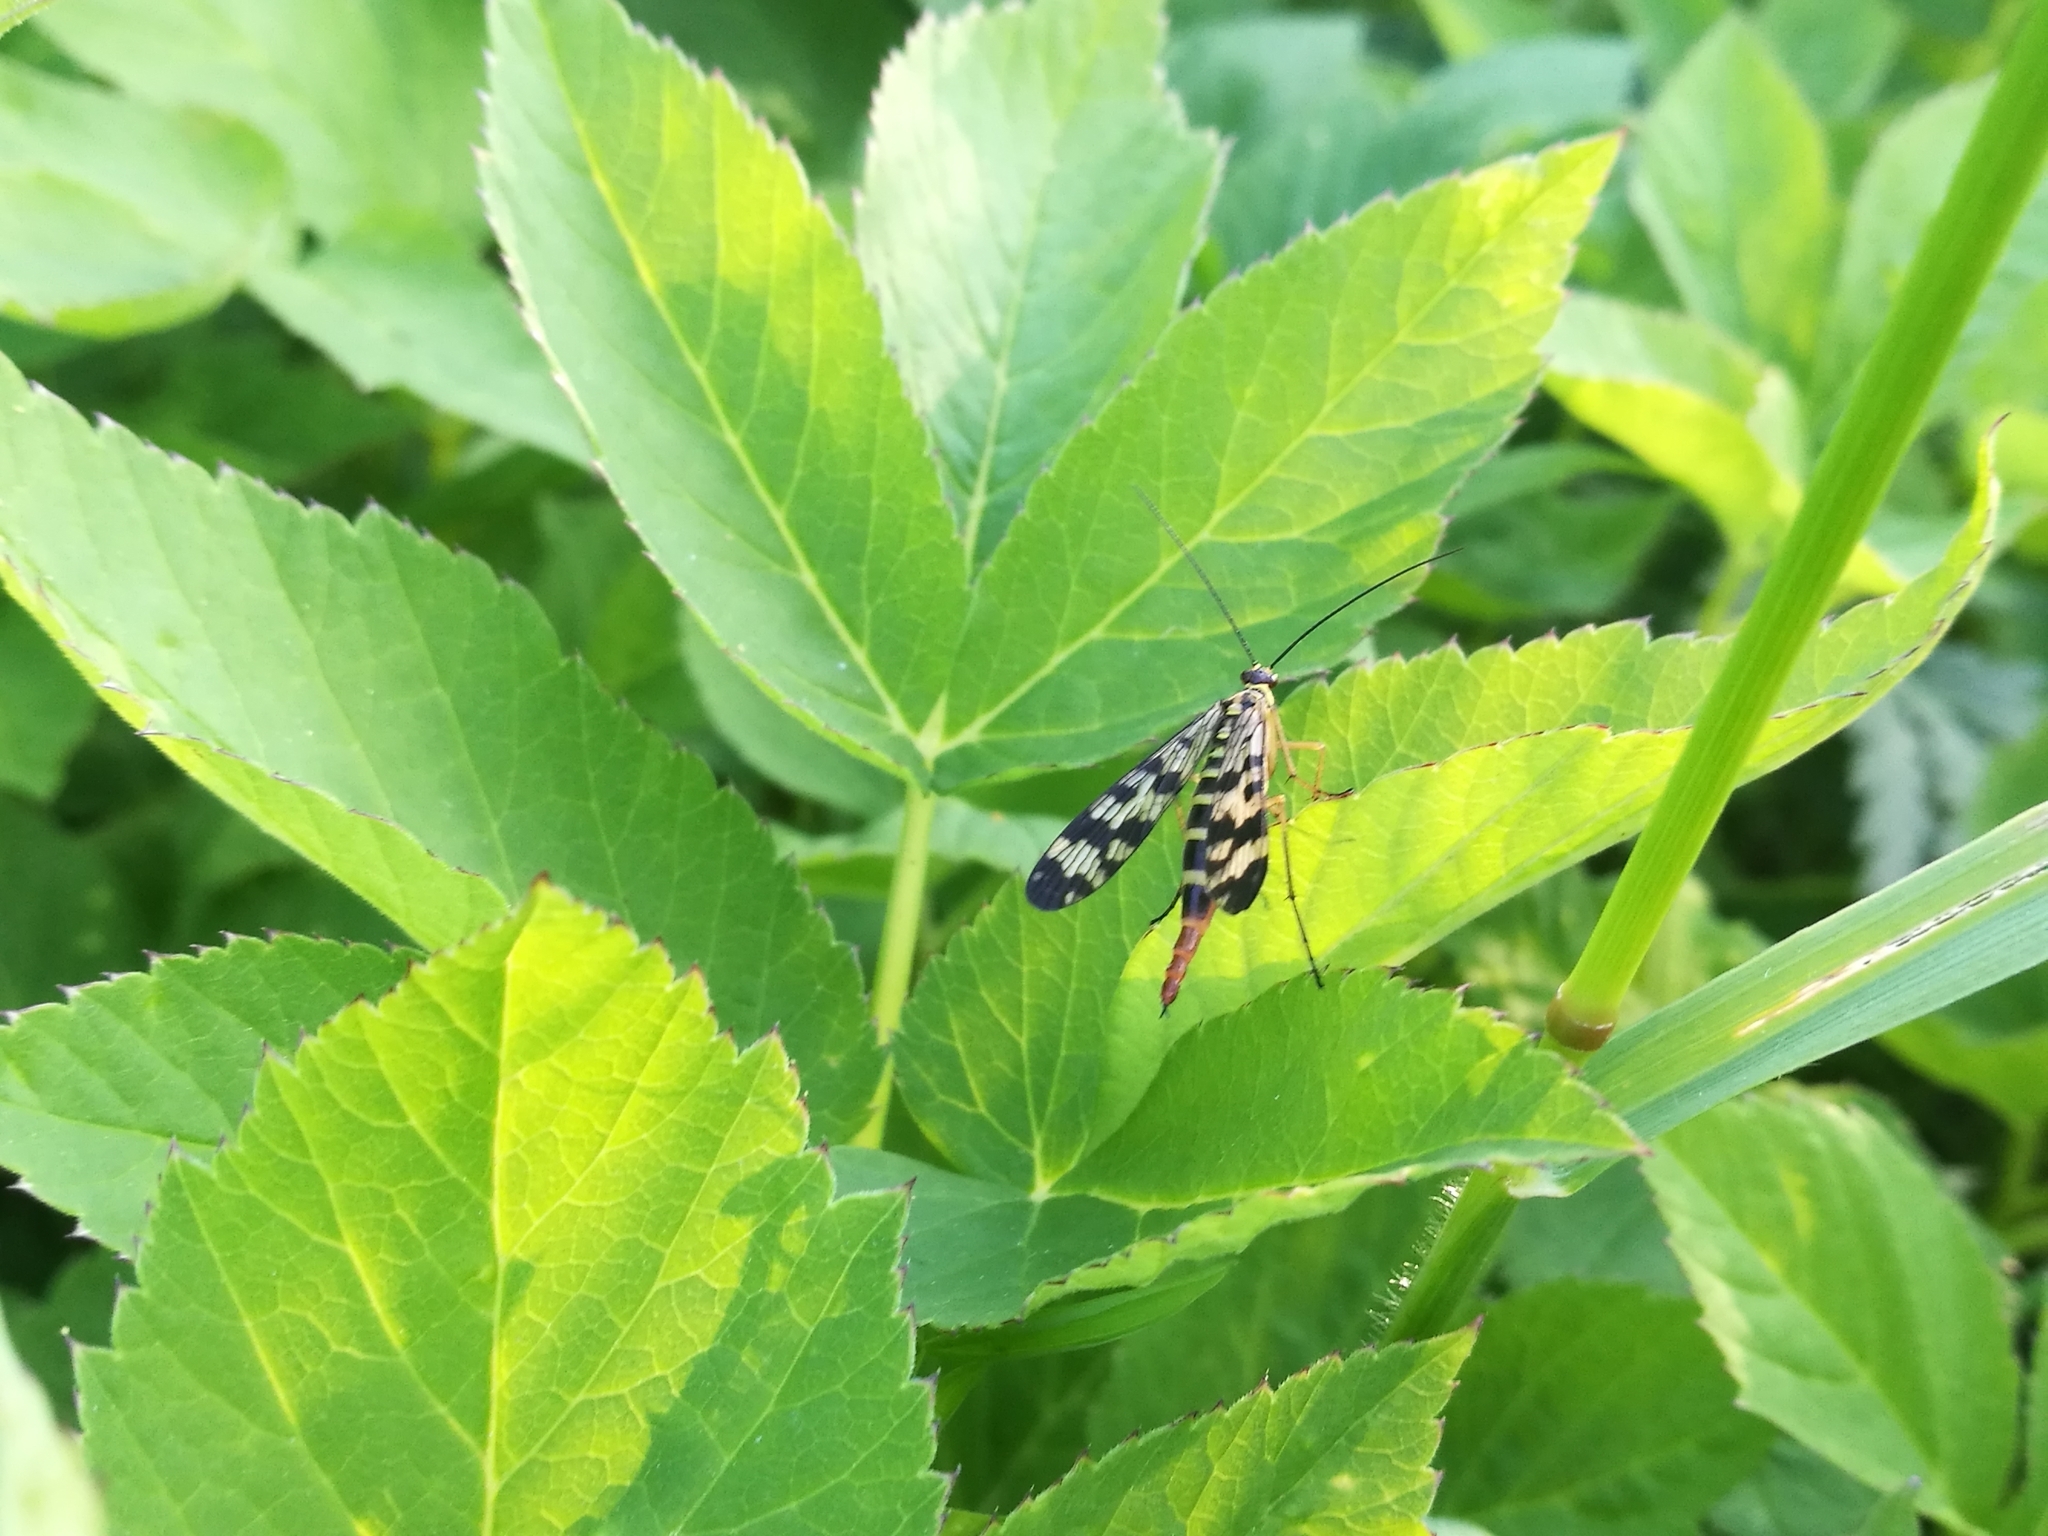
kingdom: Animalia
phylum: Arthropoda
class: Insecta
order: Mecoptera
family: Panorpidae
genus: Panorpa
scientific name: Panorpa communis
